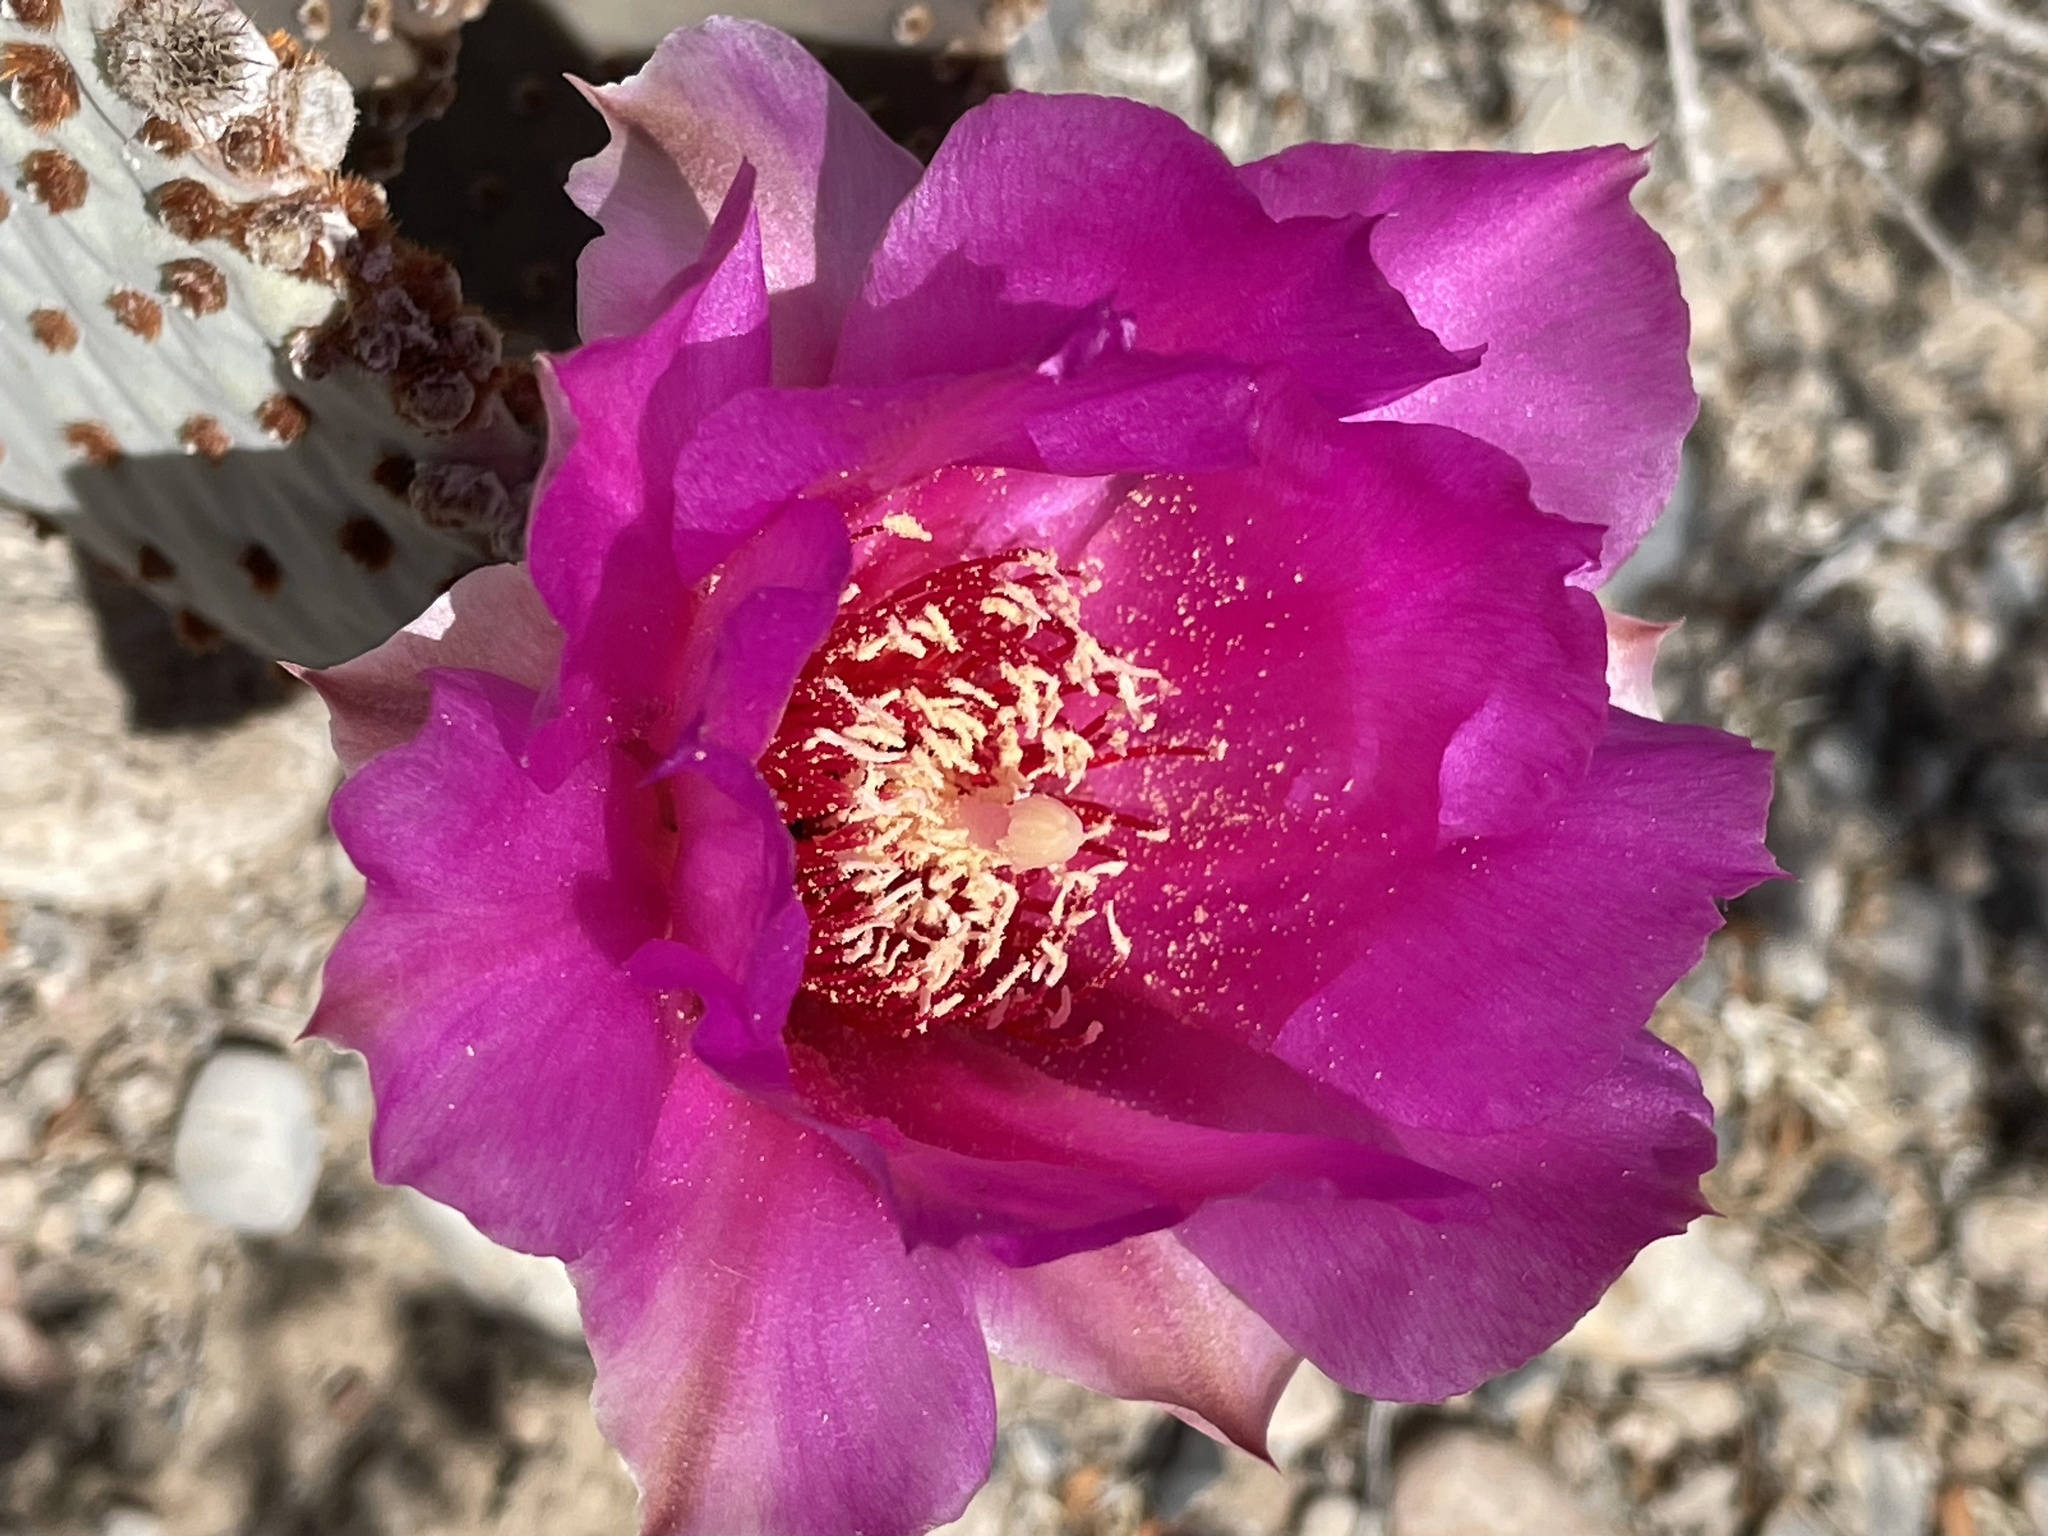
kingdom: Plantae
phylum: Tracheophyta
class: Magnoliopsida
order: Caryophyllales
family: Cactaceae
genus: Opuntia
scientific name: Opuntia basilaris
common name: Beavertail prickly-pear
